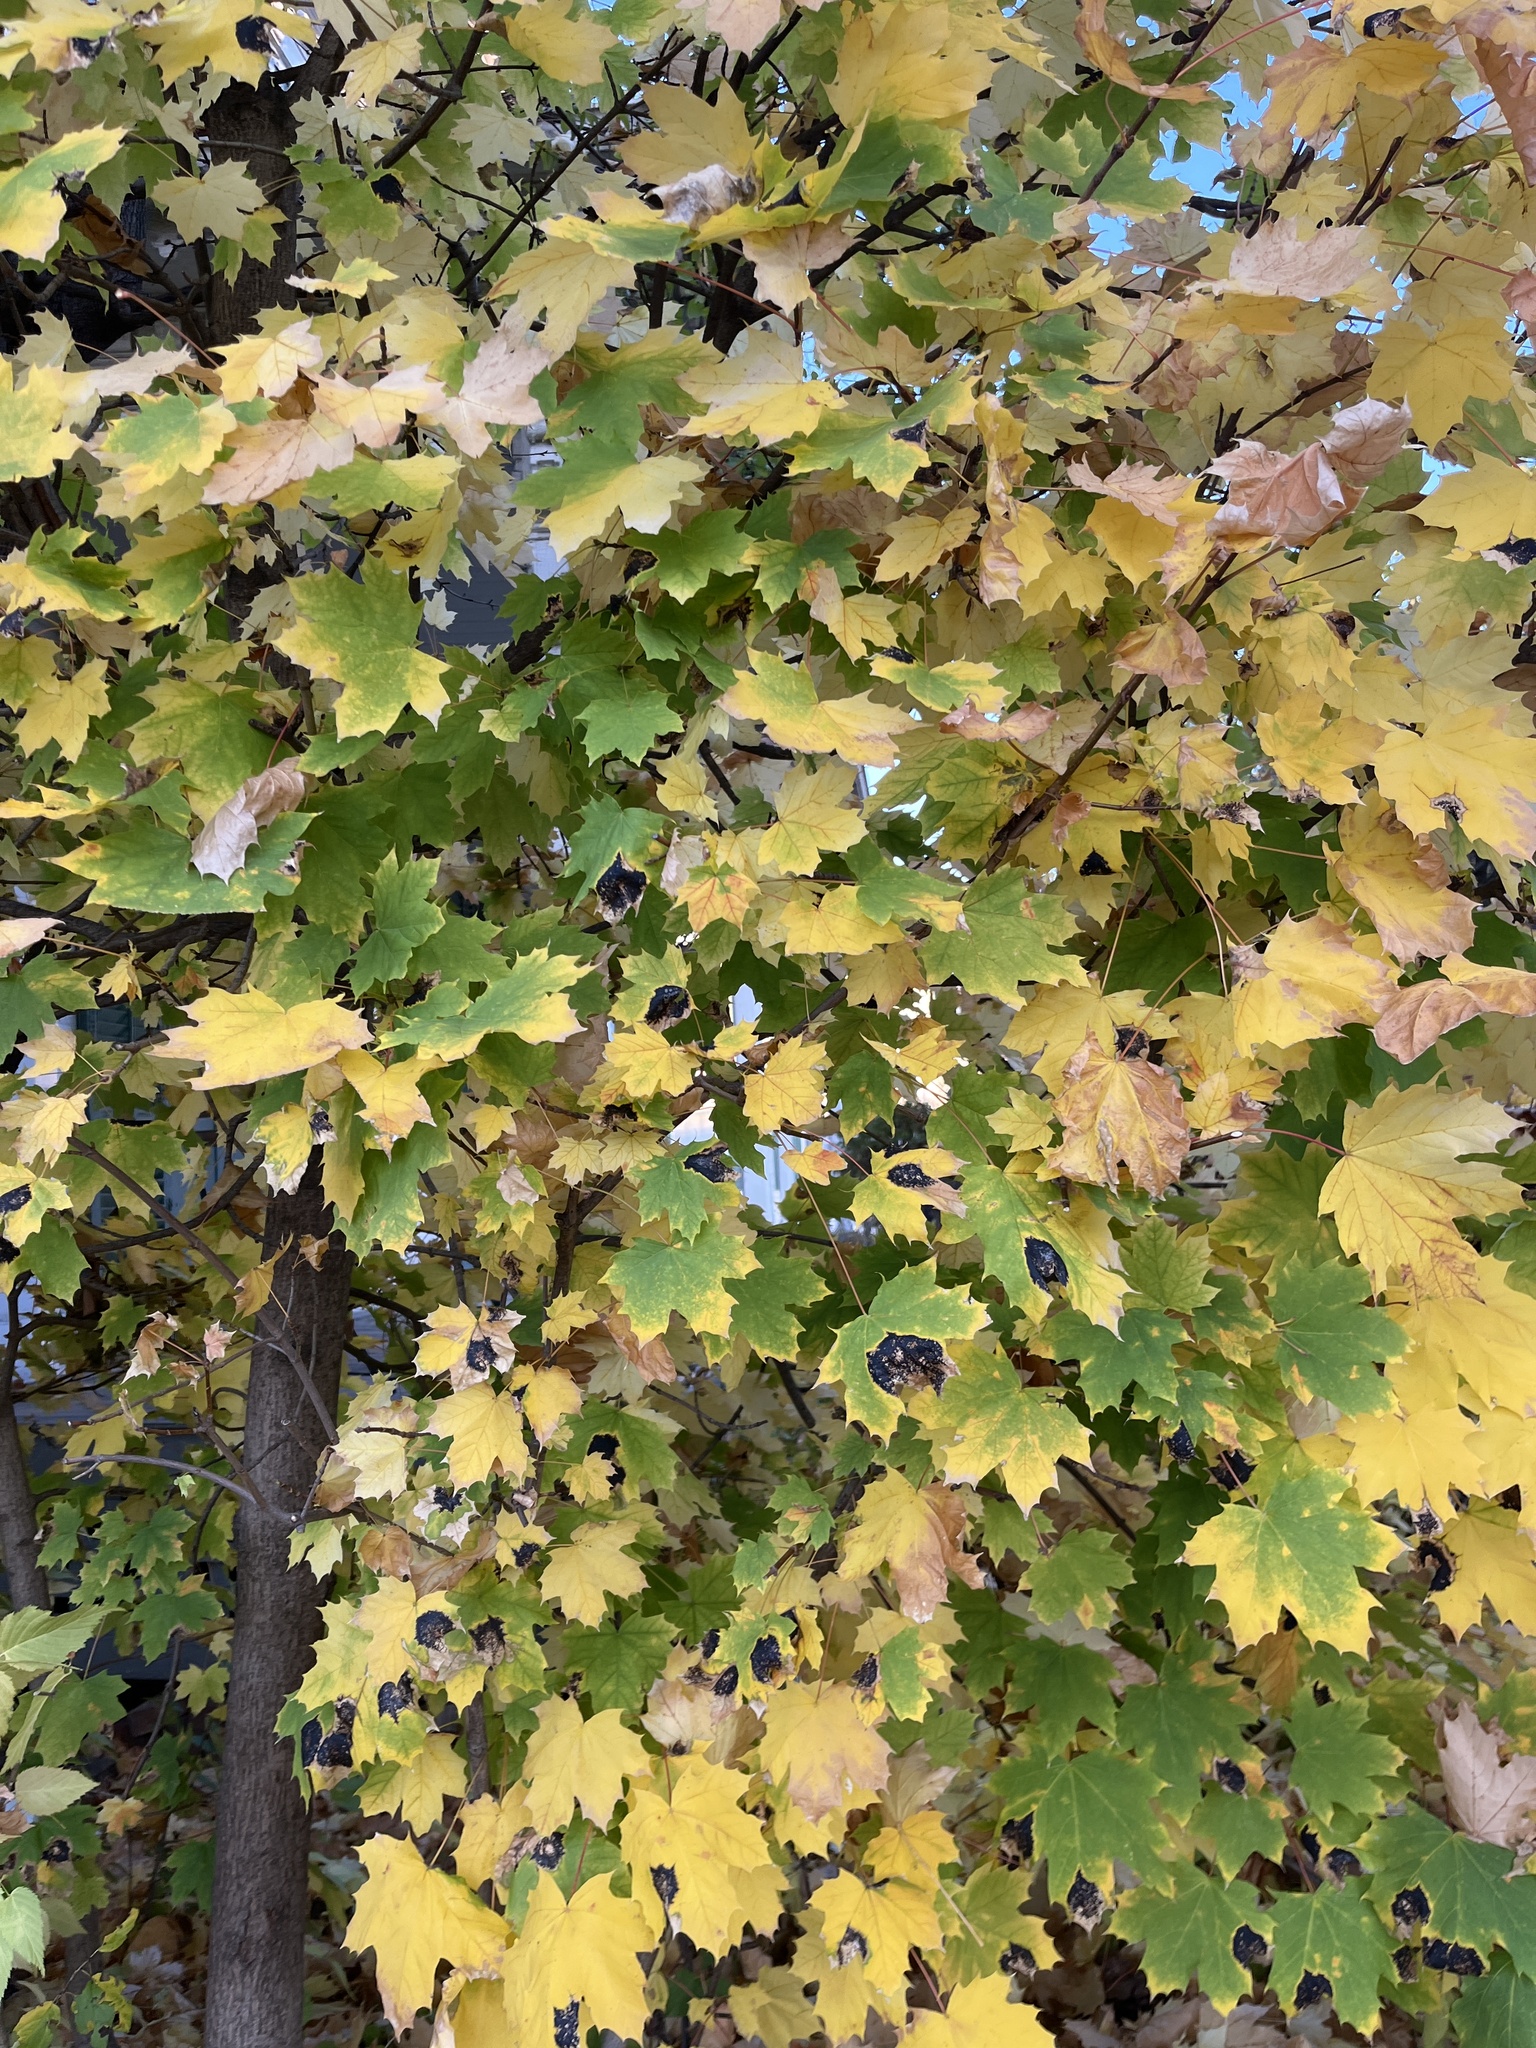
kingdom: Plantae
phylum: Tracheophyta
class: Magnoliopsida
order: Sapindales
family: Sapindaceae
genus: Acer
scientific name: Acer platanoides
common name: Norway maple
